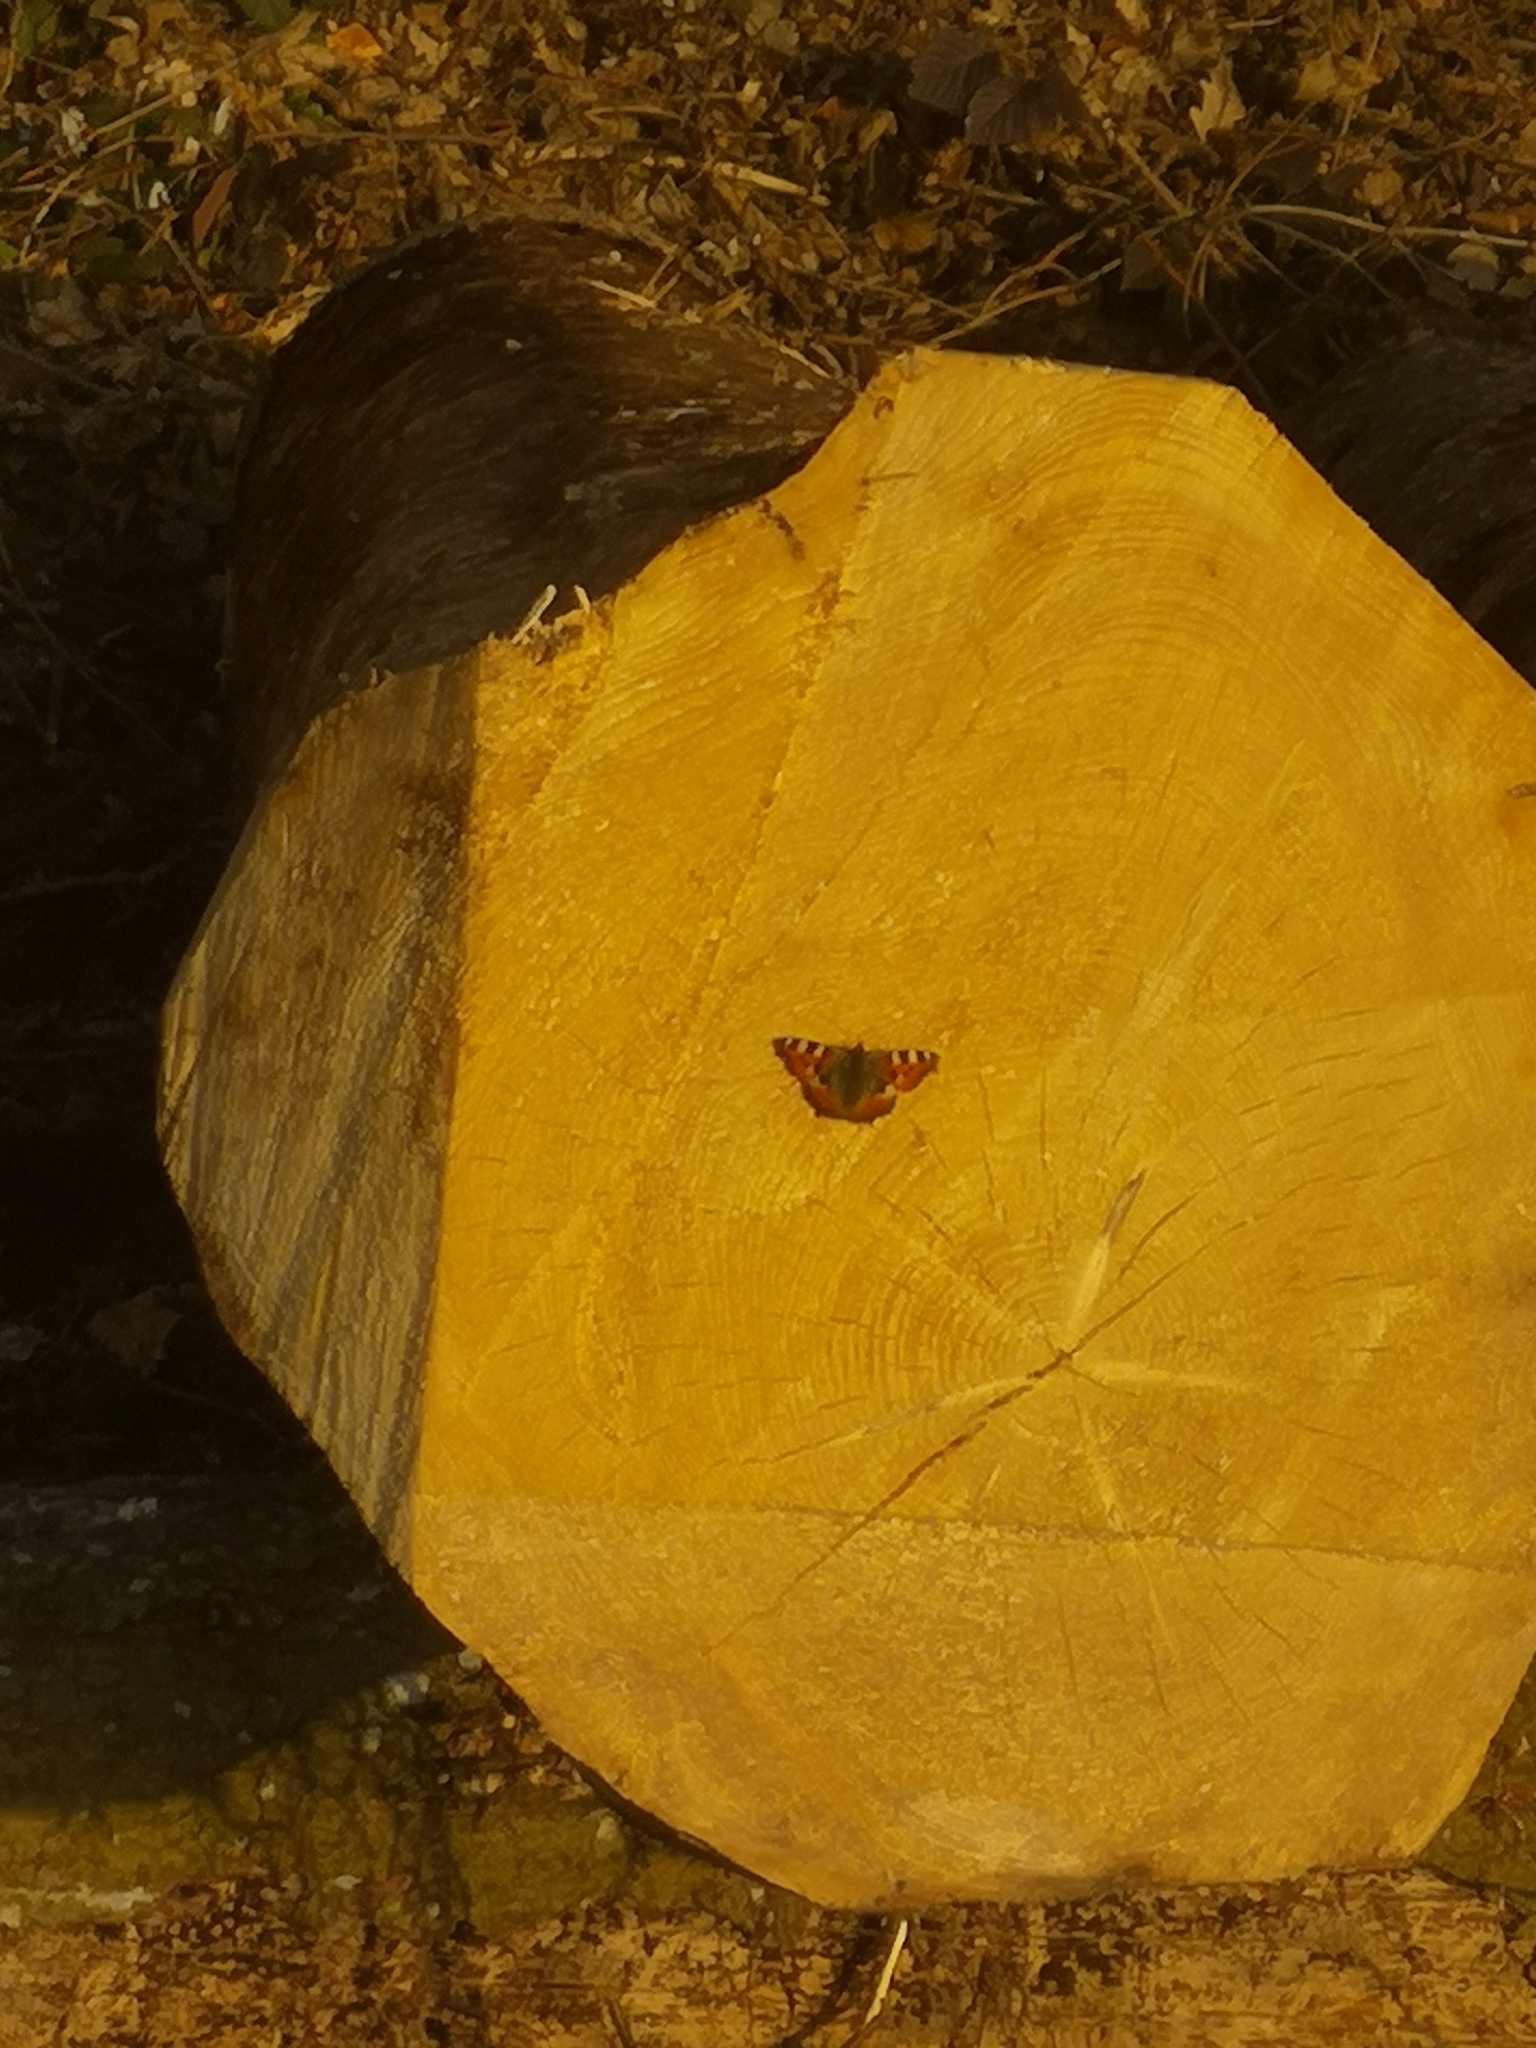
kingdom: Animalia
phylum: Arthropoda
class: Insecta
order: Lepidoptera
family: Nymphalidae
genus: Aglais
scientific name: Aglais urticae
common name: Small tortoiseshell
